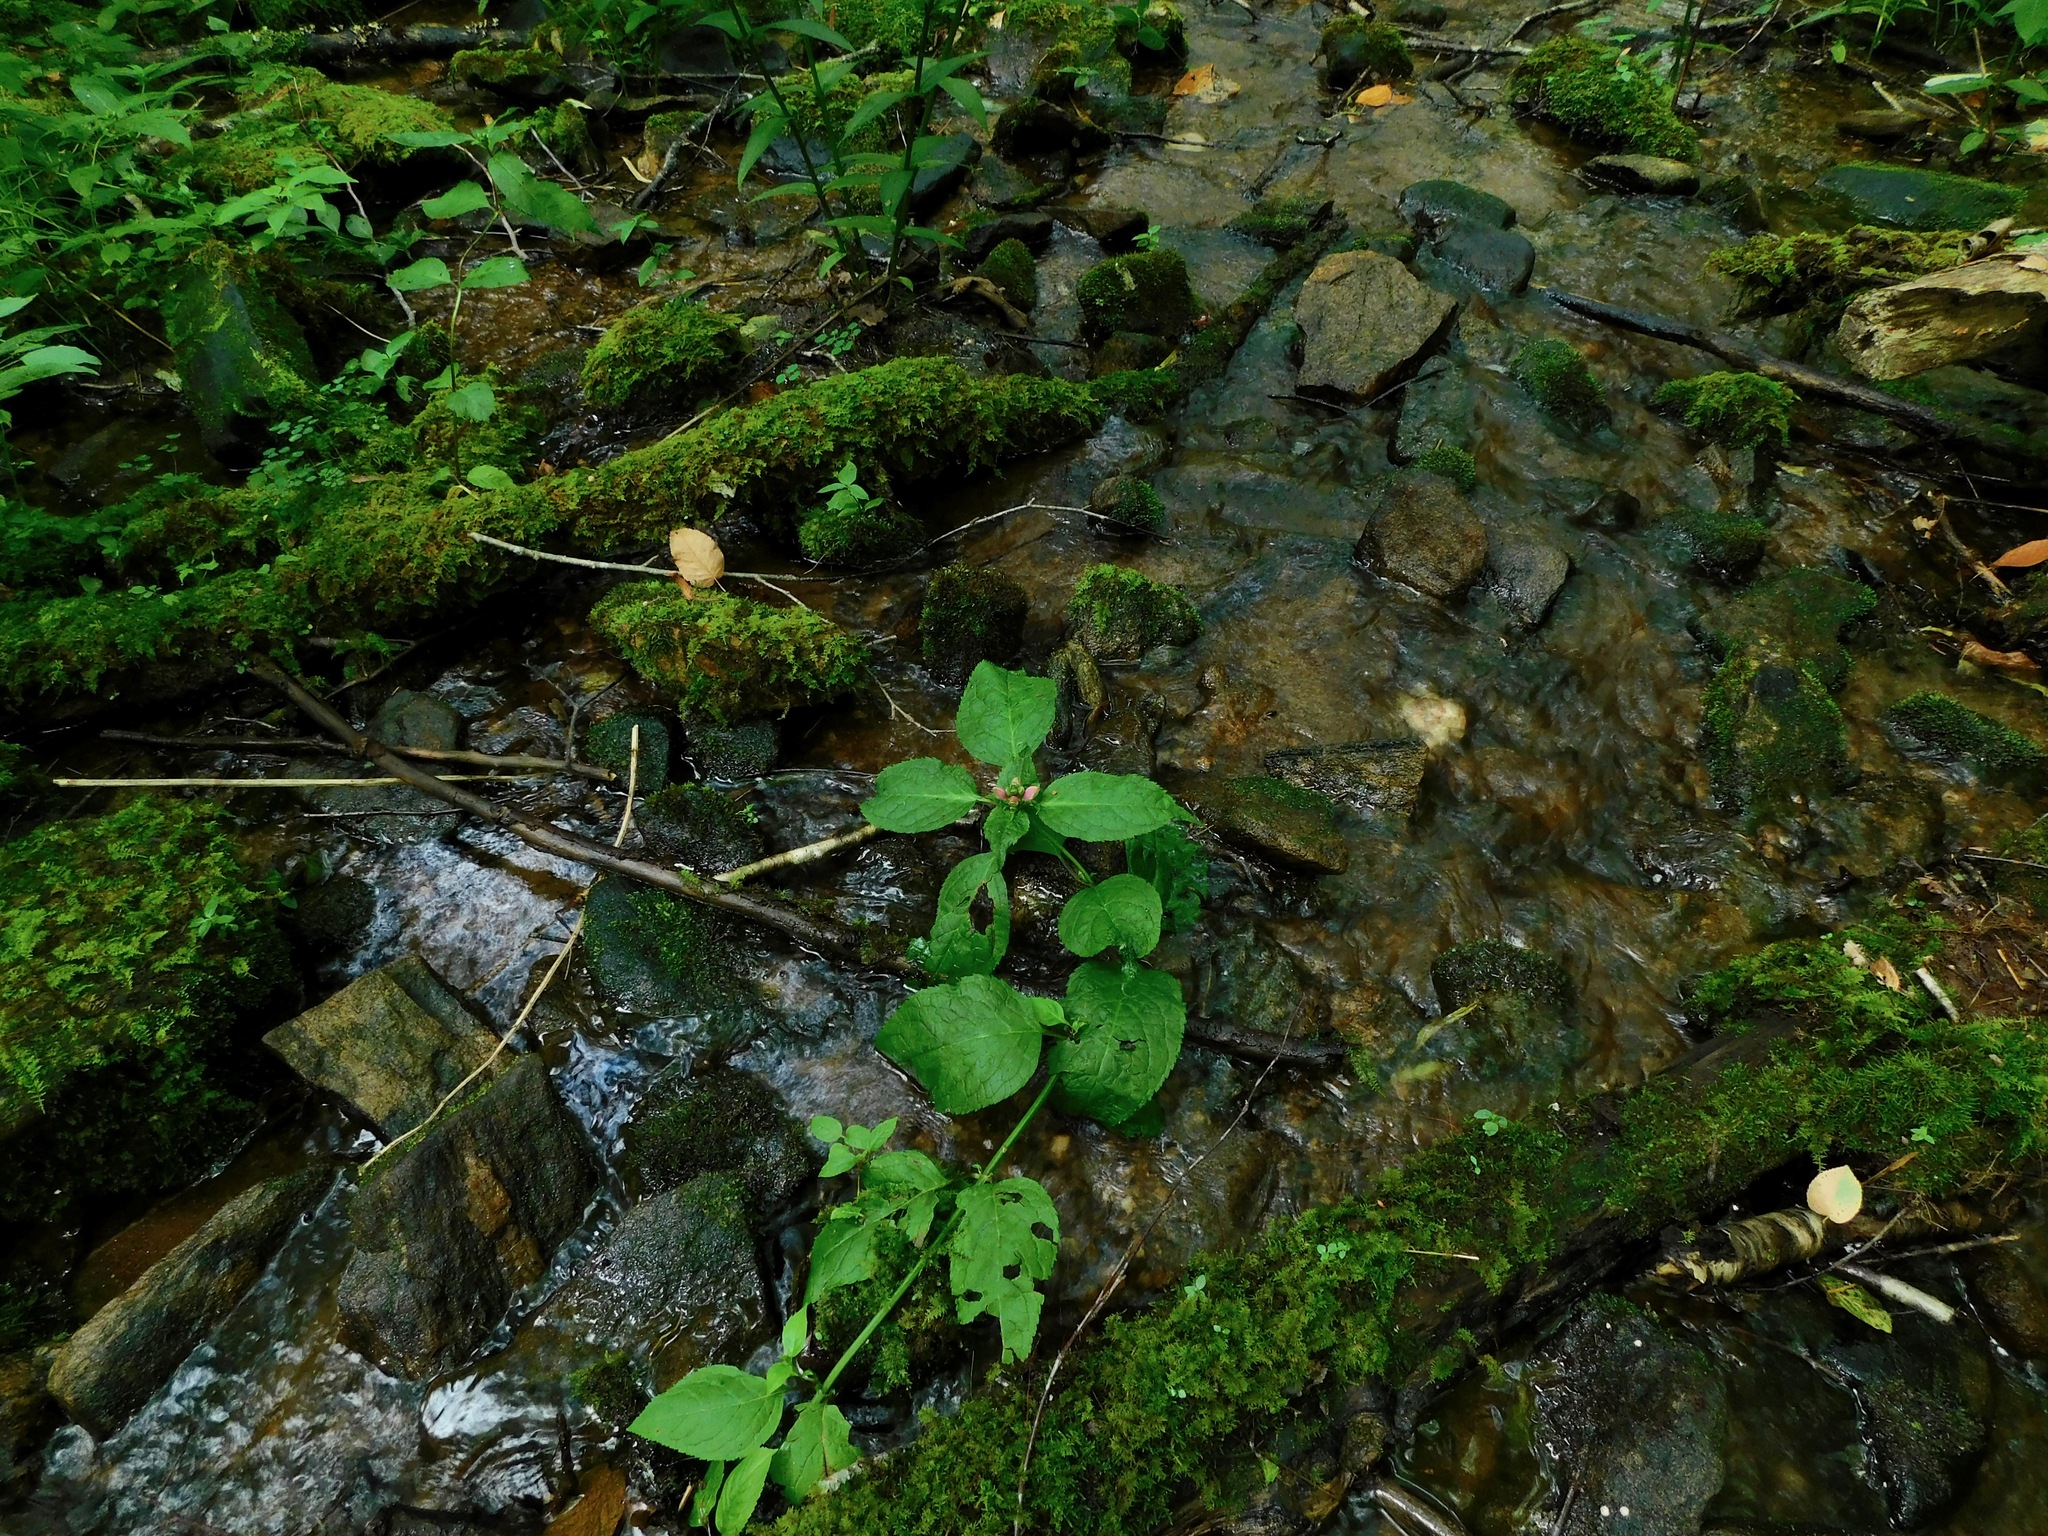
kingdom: Plantae
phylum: Tracheophyta
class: Magnoliopsida
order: Lamiales
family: Plantaginaceae
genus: Chelone
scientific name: Chelone lyonii
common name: Pink turtlehead
